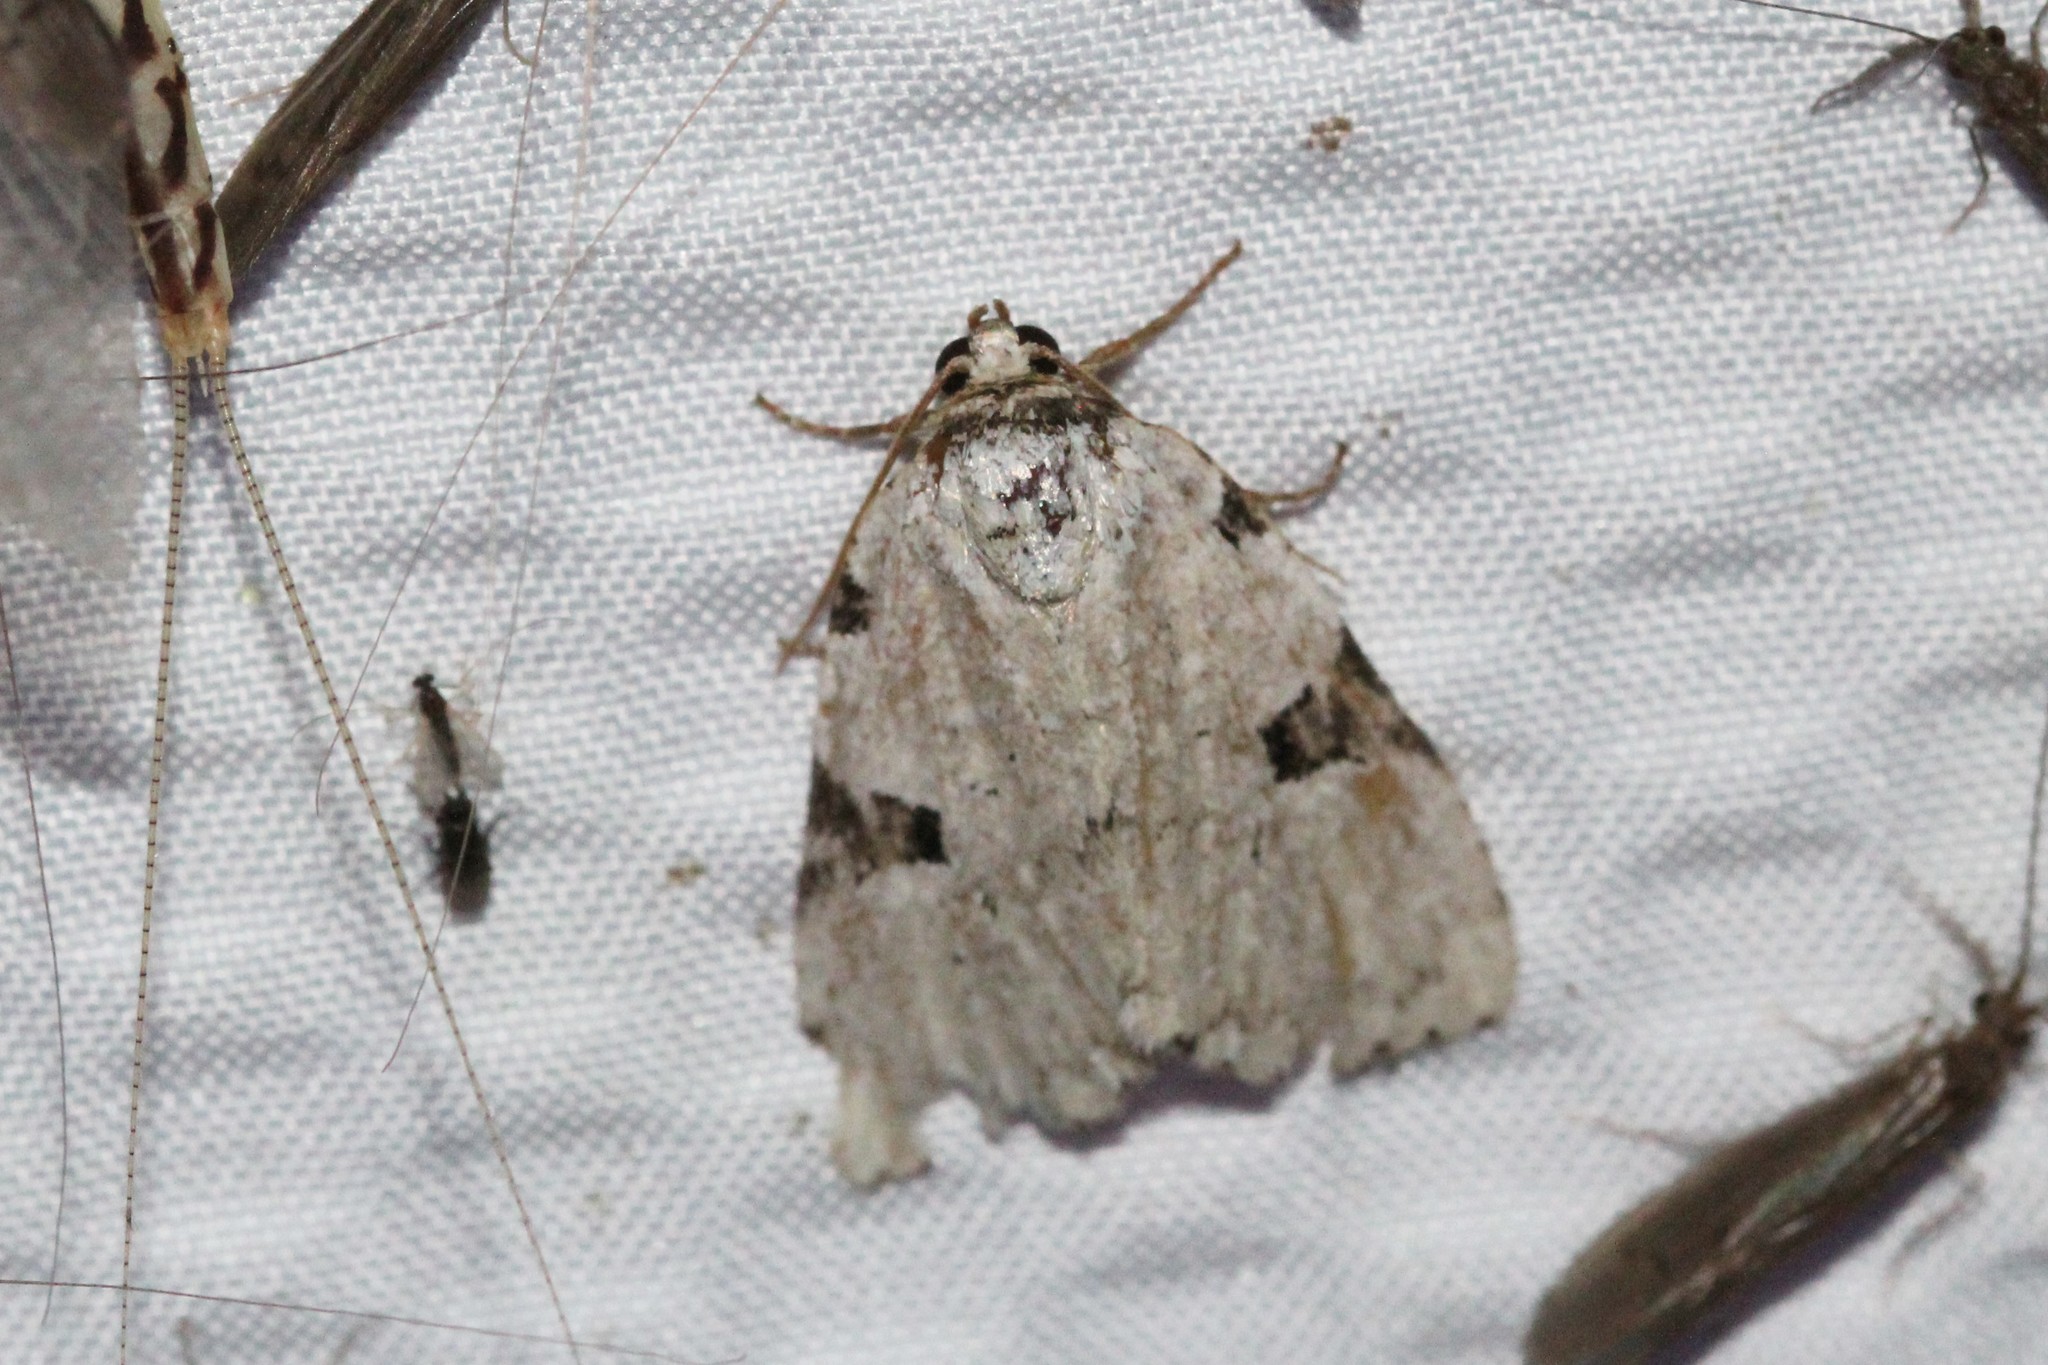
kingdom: Animalia
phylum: Arthropoda
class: Insecta
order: Lepidoptera
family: Noctuidae
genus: Leuconycta
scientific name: Leuconycta diphteroides
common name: Green leuconycta moth
